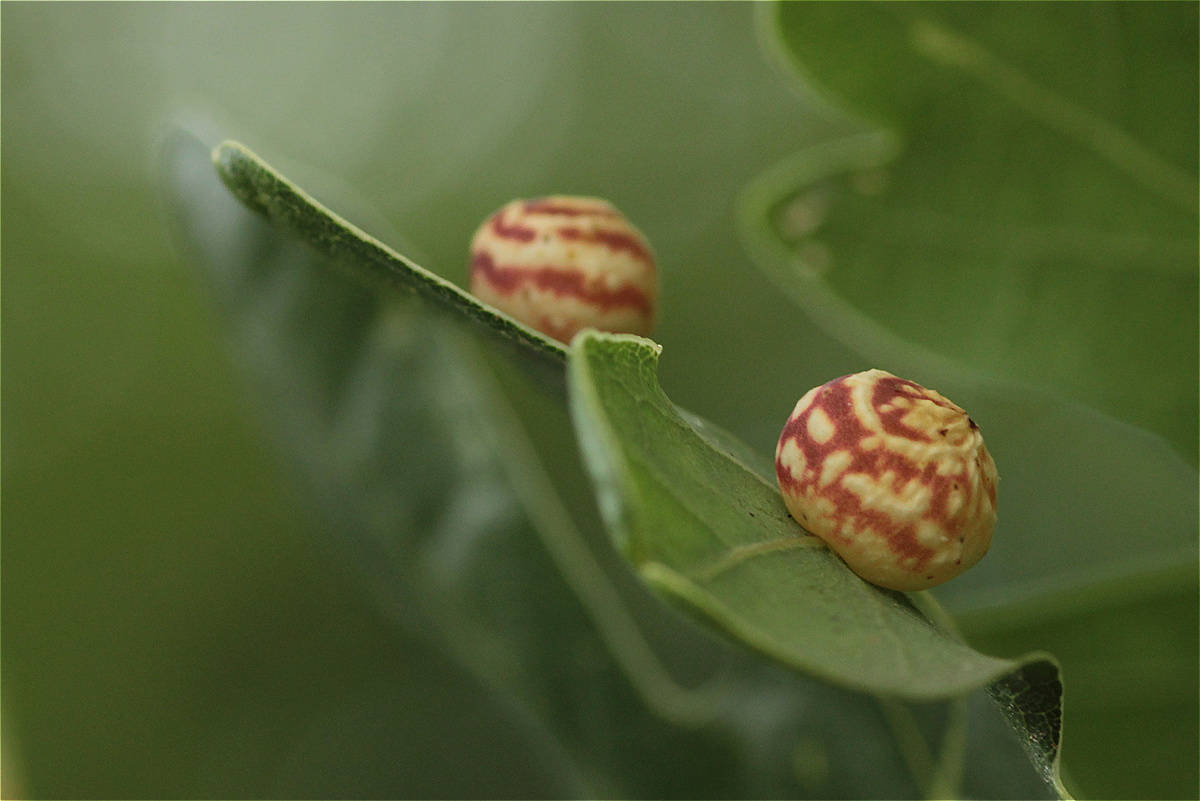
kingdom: Animalia
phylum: Arthropoda
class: Insecta
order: Hymenoptera
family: Cynipidae
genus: Cynips
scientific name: Cynips longiventris
